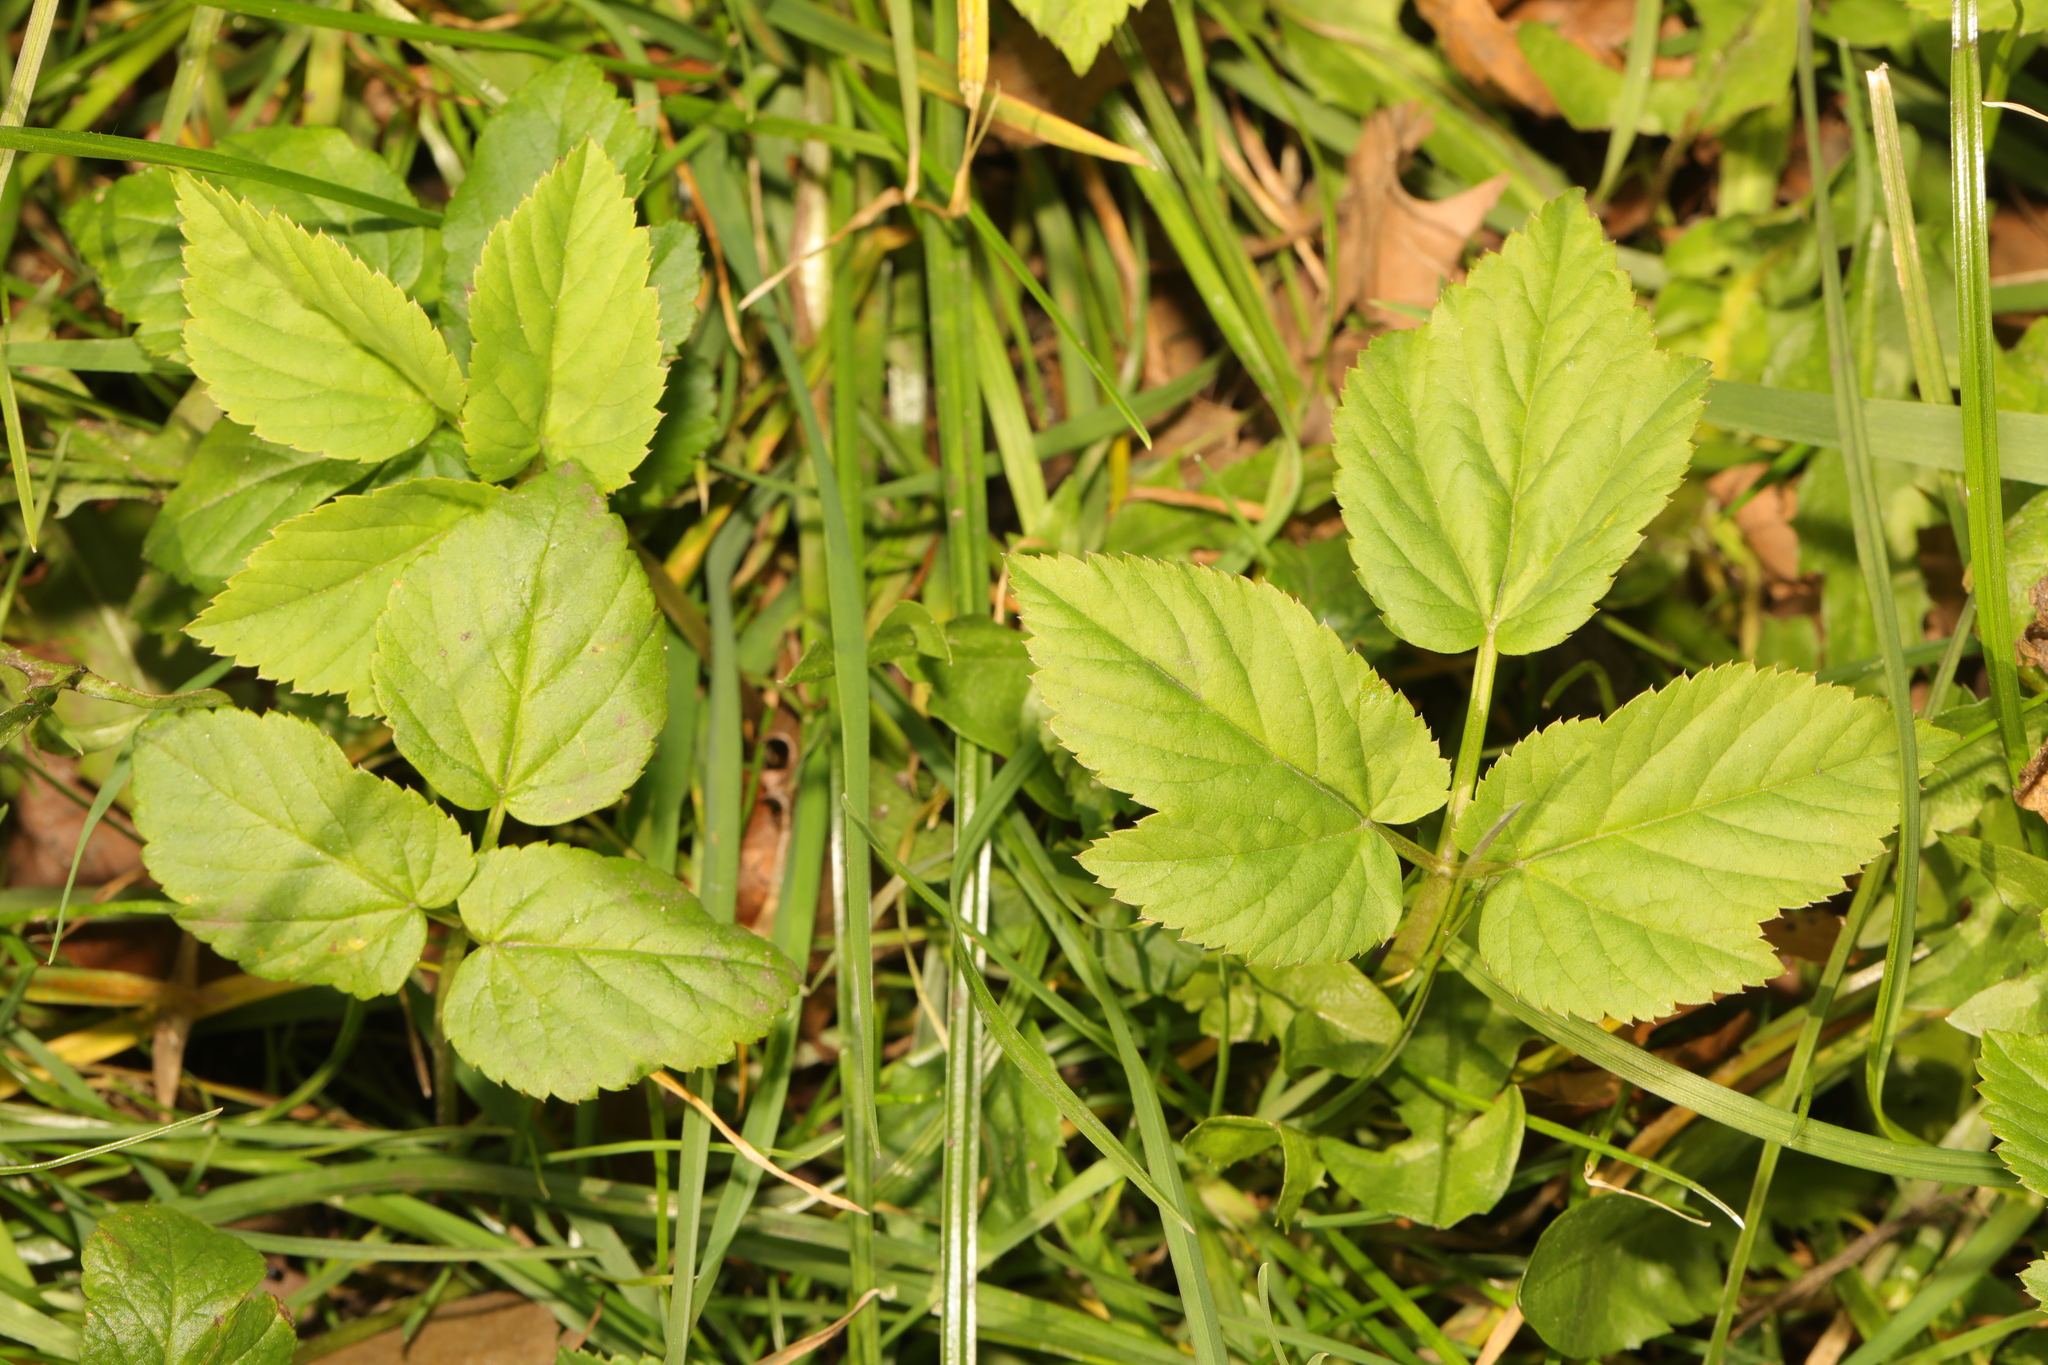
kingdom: Plantae
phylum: Tracheophyta
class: Magnoliopsida
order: Apiales
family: Apiaceae
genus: Aegopodium
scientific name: Aegopodium podagraria
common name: Ground-elder
